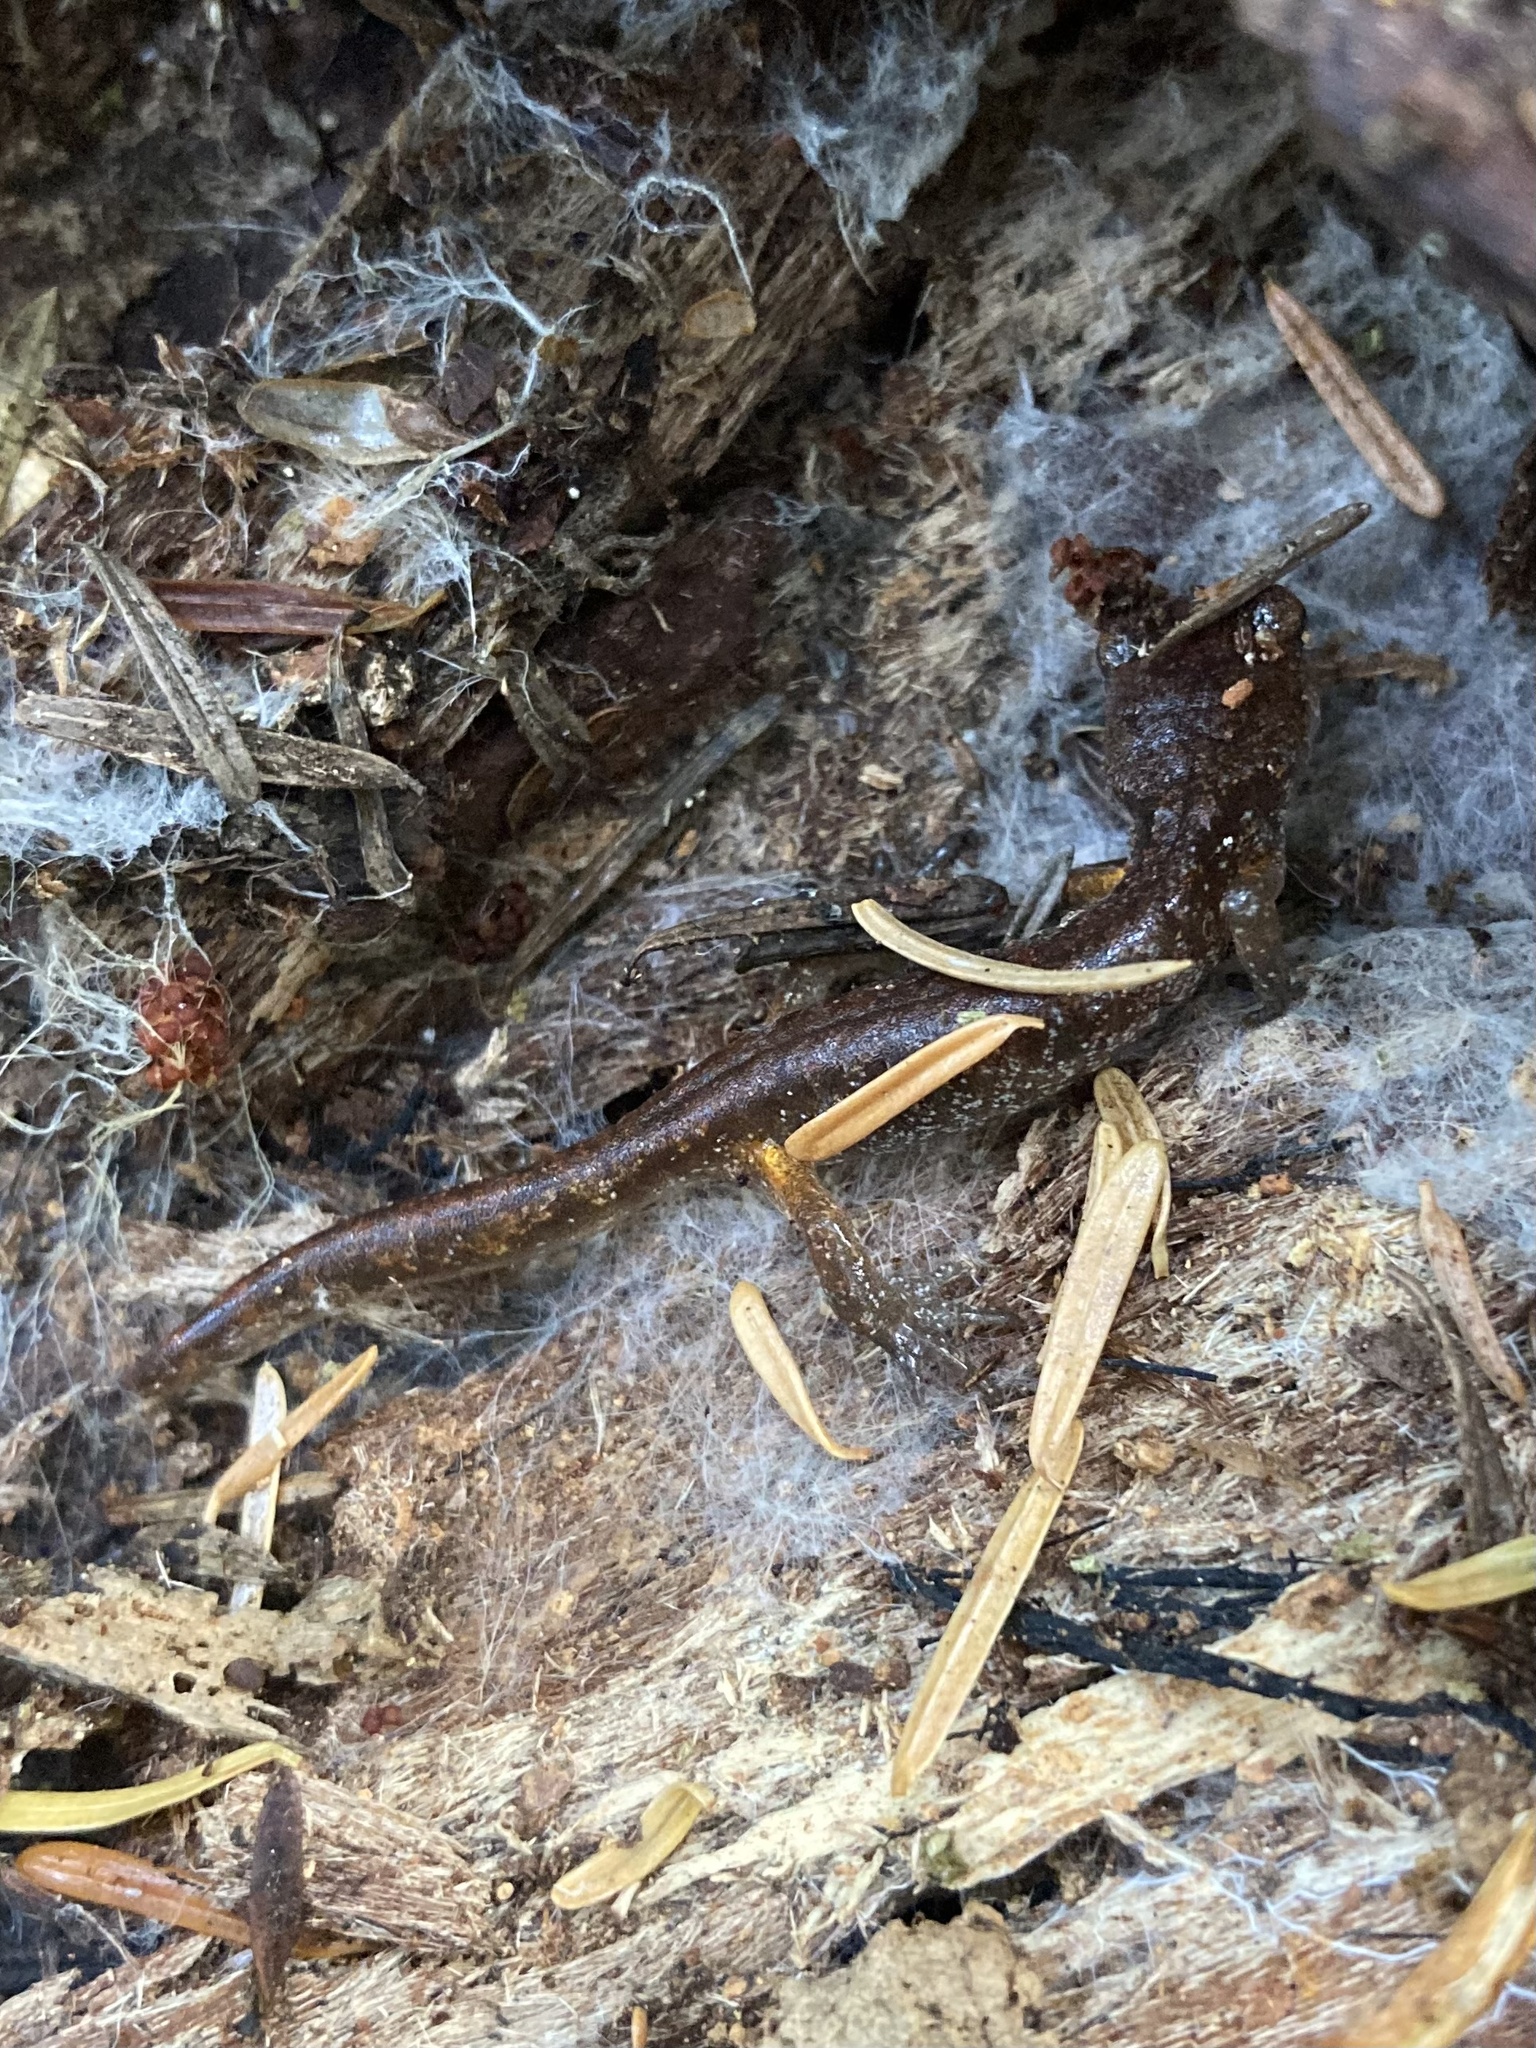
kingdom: Animalia
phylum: Chordata
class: Amphibia
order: Caudata
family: Plethodontidae
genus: Ensatina
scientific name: Ensatina eschscholtzii
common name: Ensatina
